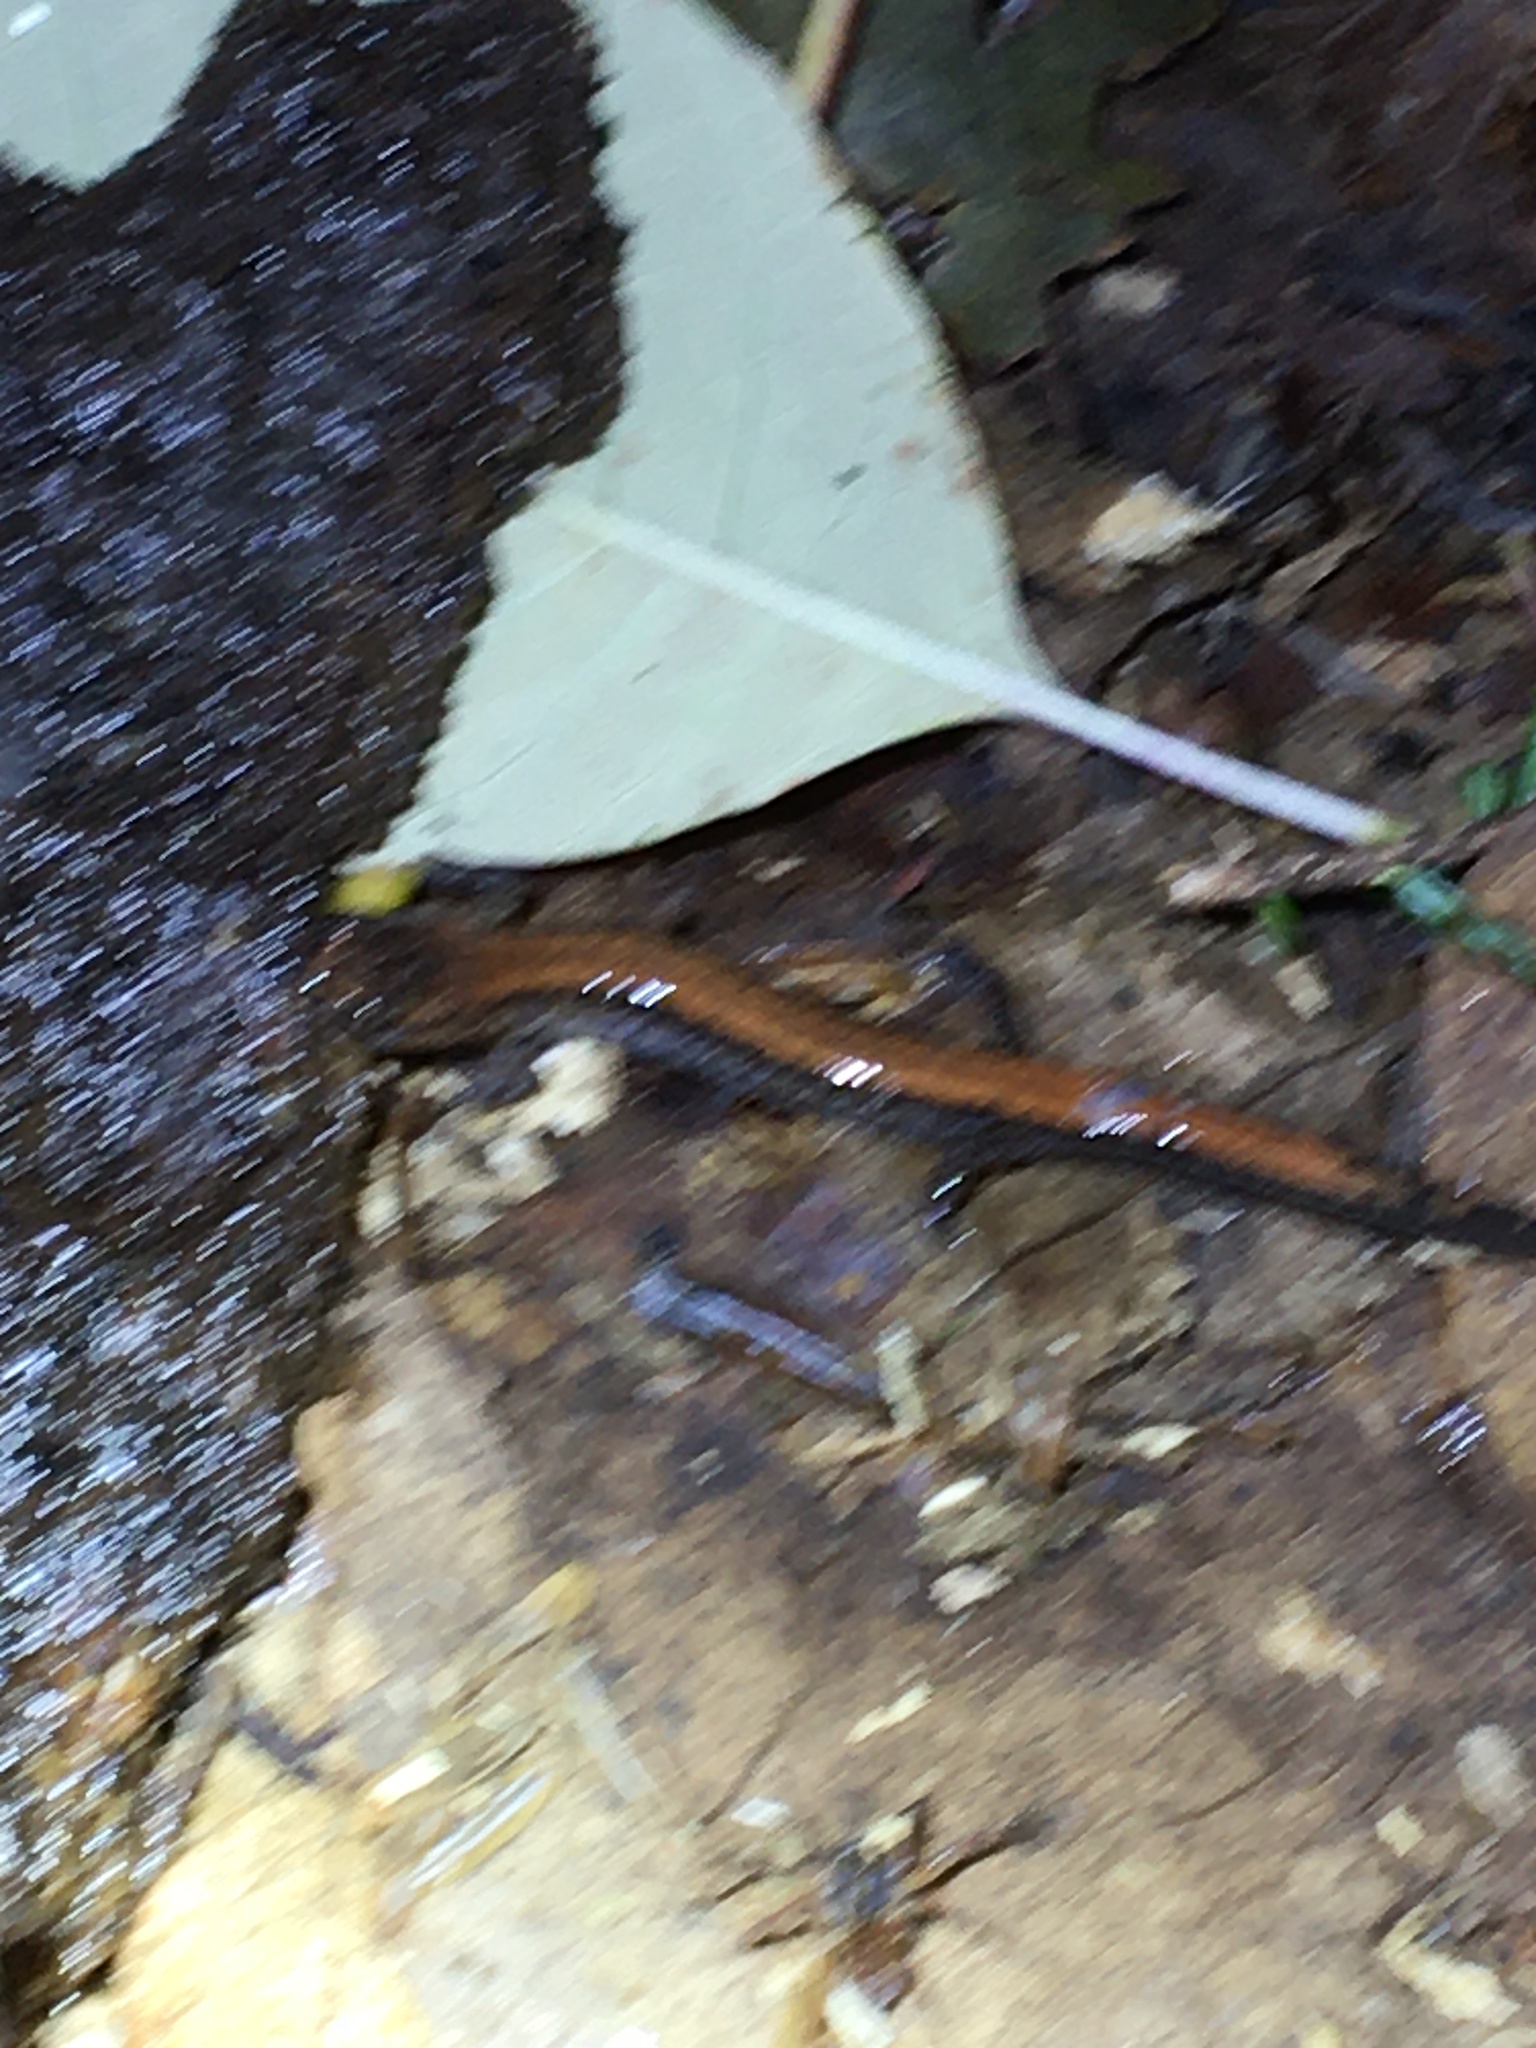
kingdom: Animalia
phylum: Chordata
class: Amphibia
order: Caudata
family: Plethodontidae
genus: Plethodon
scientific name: Plethodon cinereus
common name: Redback salamander
